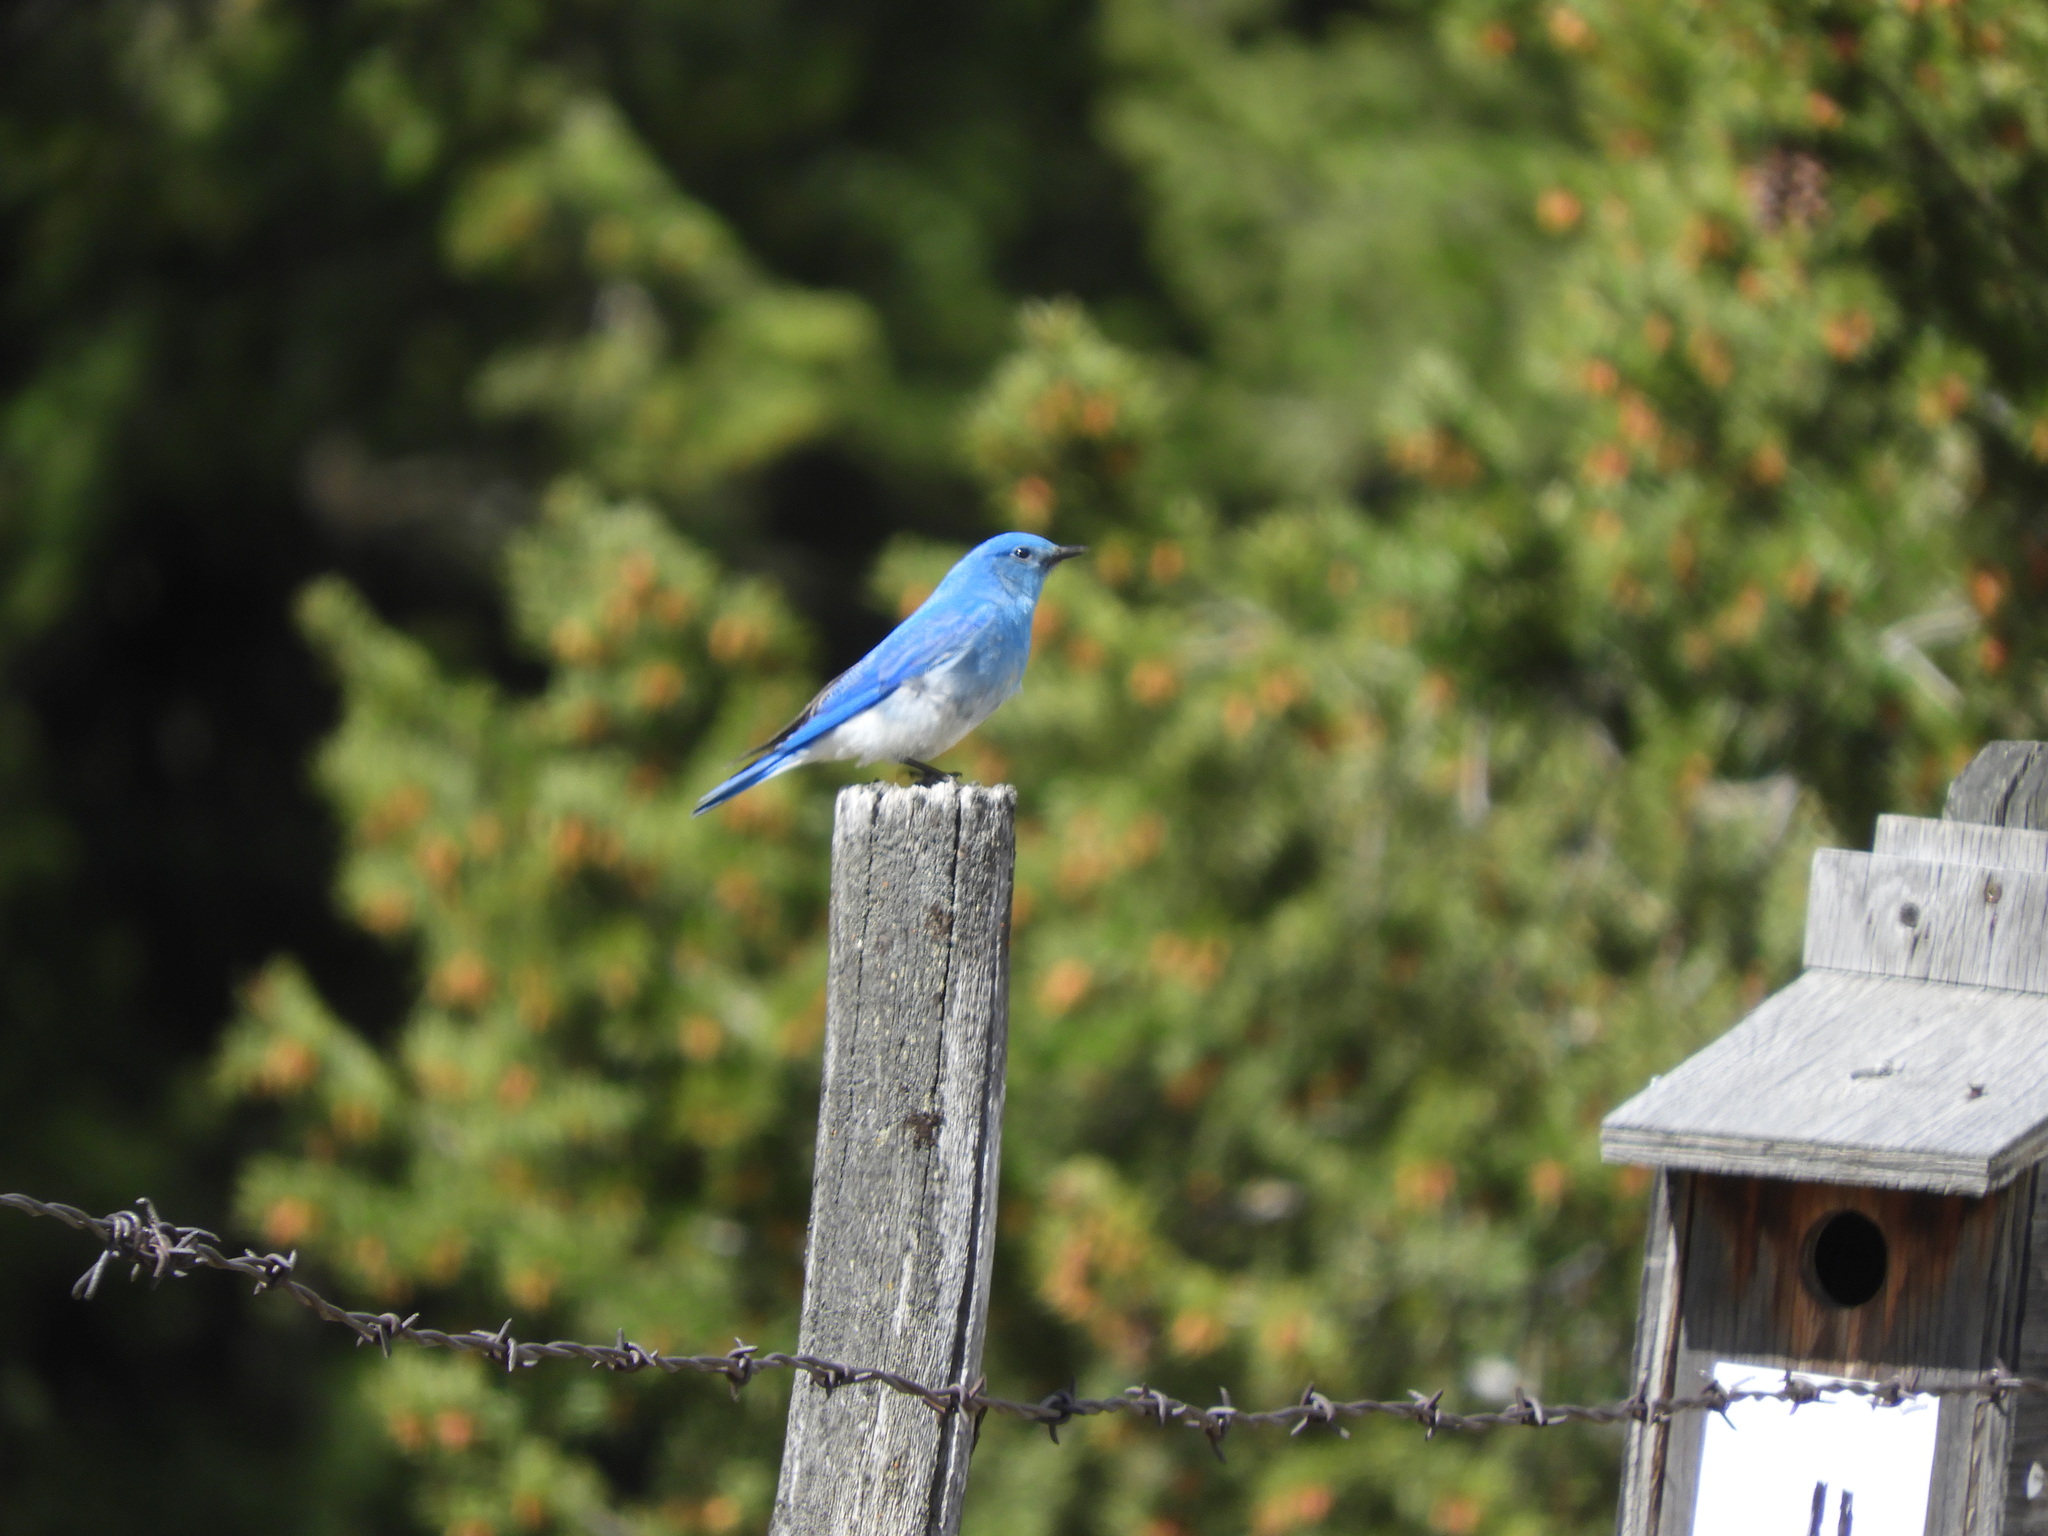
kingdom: Animalia
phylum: Chordata
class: Aves
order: Passeriformes
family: Turdidae
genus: Sialia
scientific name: Sialia currucoides
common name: Mountain bluebird
